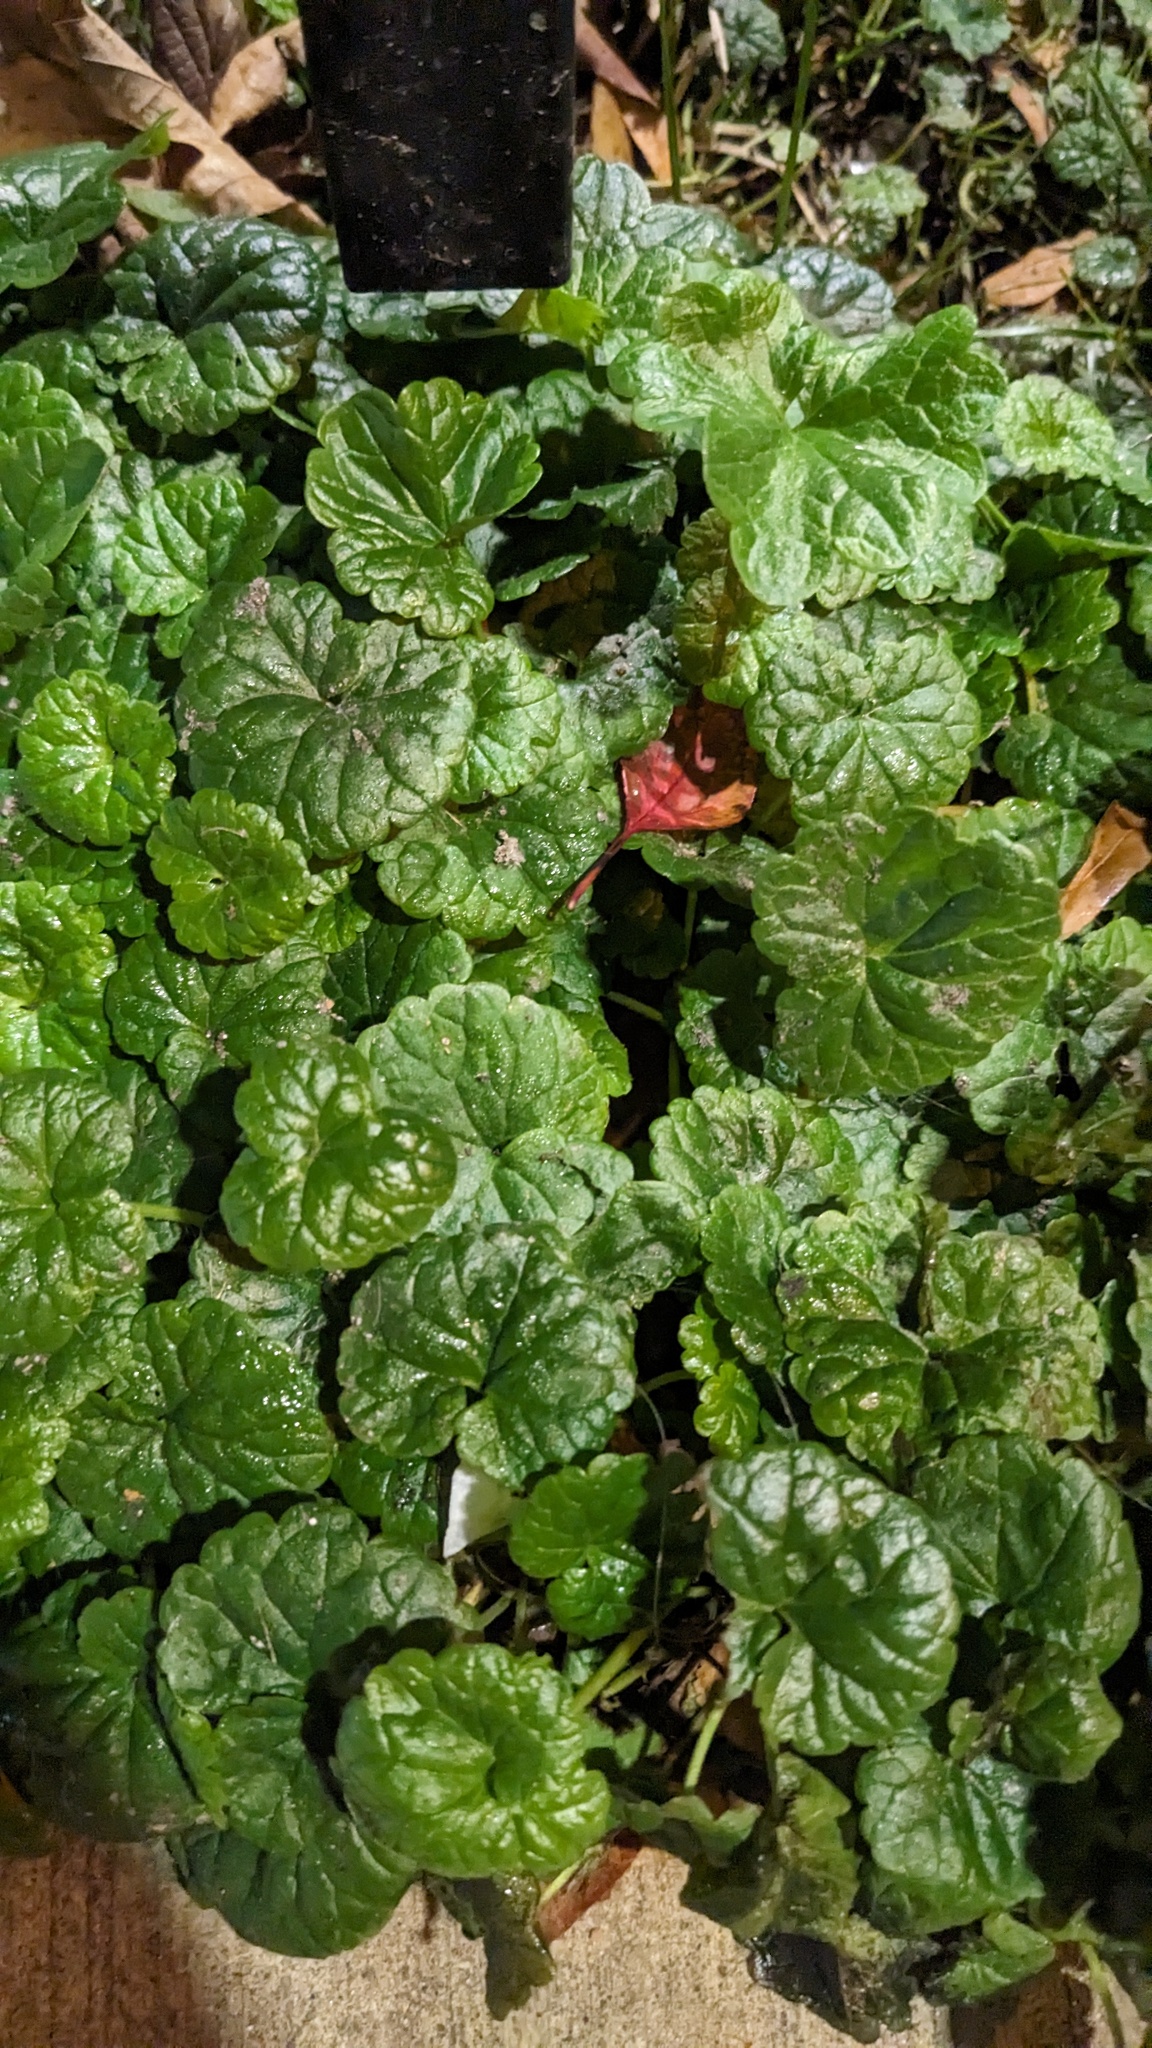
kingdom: Plantae
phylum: Tracheophyta
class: Magnoliopsida
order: Lamiales
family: Lamiaceae
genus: Glechoma
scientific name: Glechoma hederacea
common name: Ground ivy
